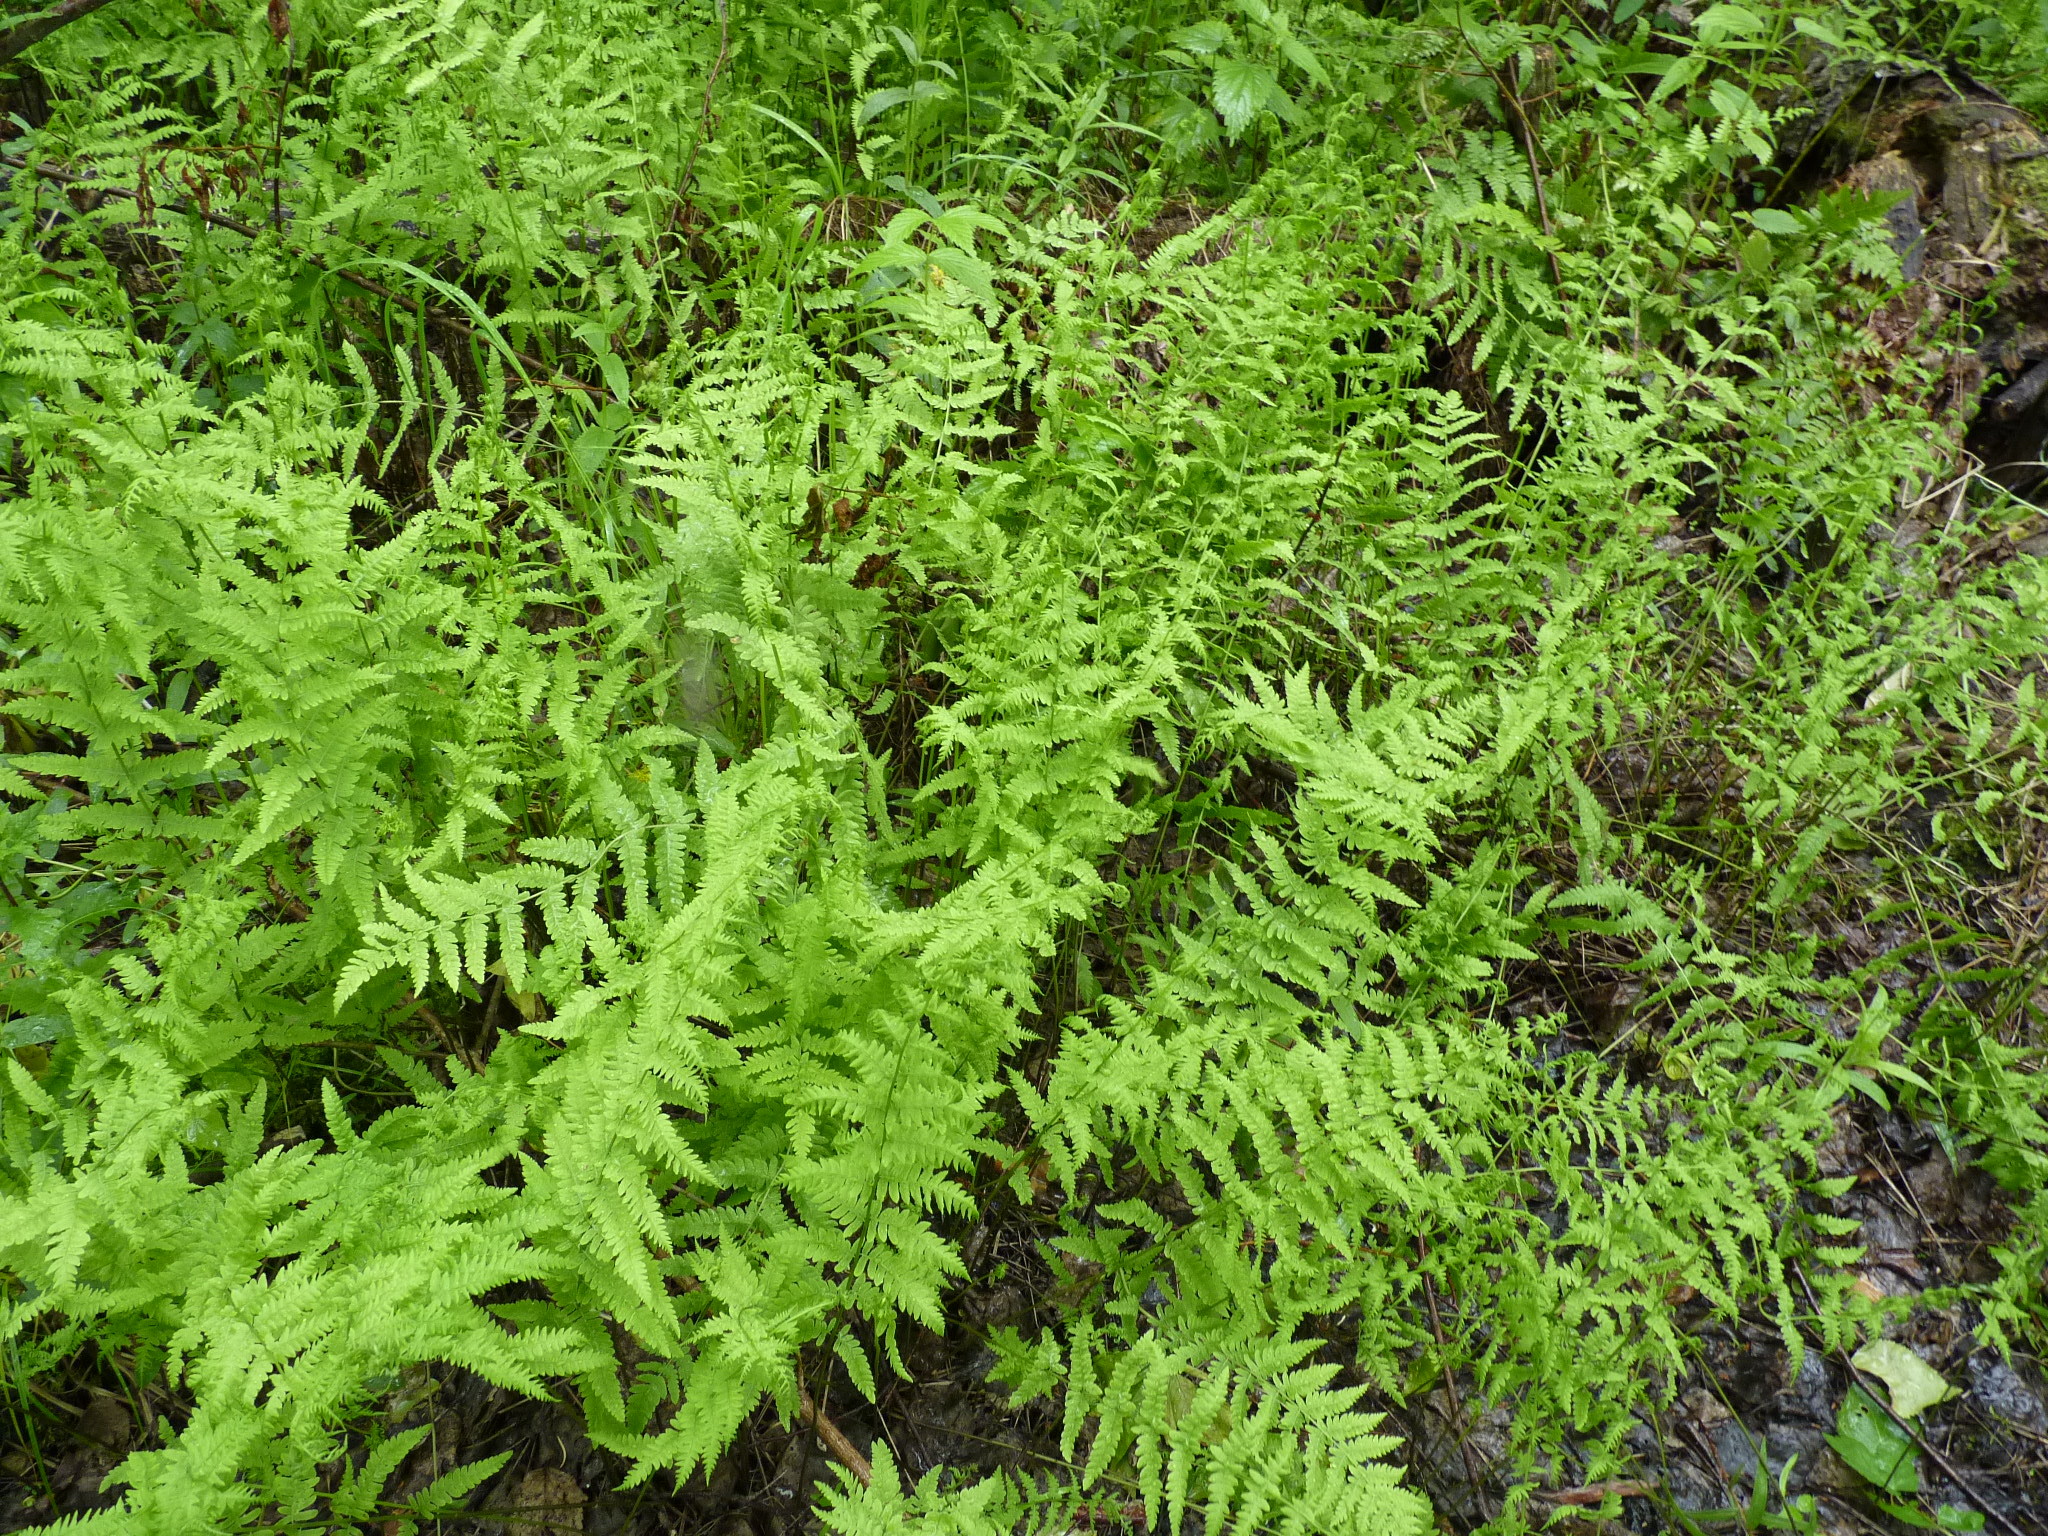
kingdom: Plantae
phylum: Tracheophyta
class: Polypodiopsida
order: Polypodiales
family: Thelypteridaceae
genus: Thelypteris
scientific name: Thelypteris palustris
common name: Marsh fern
